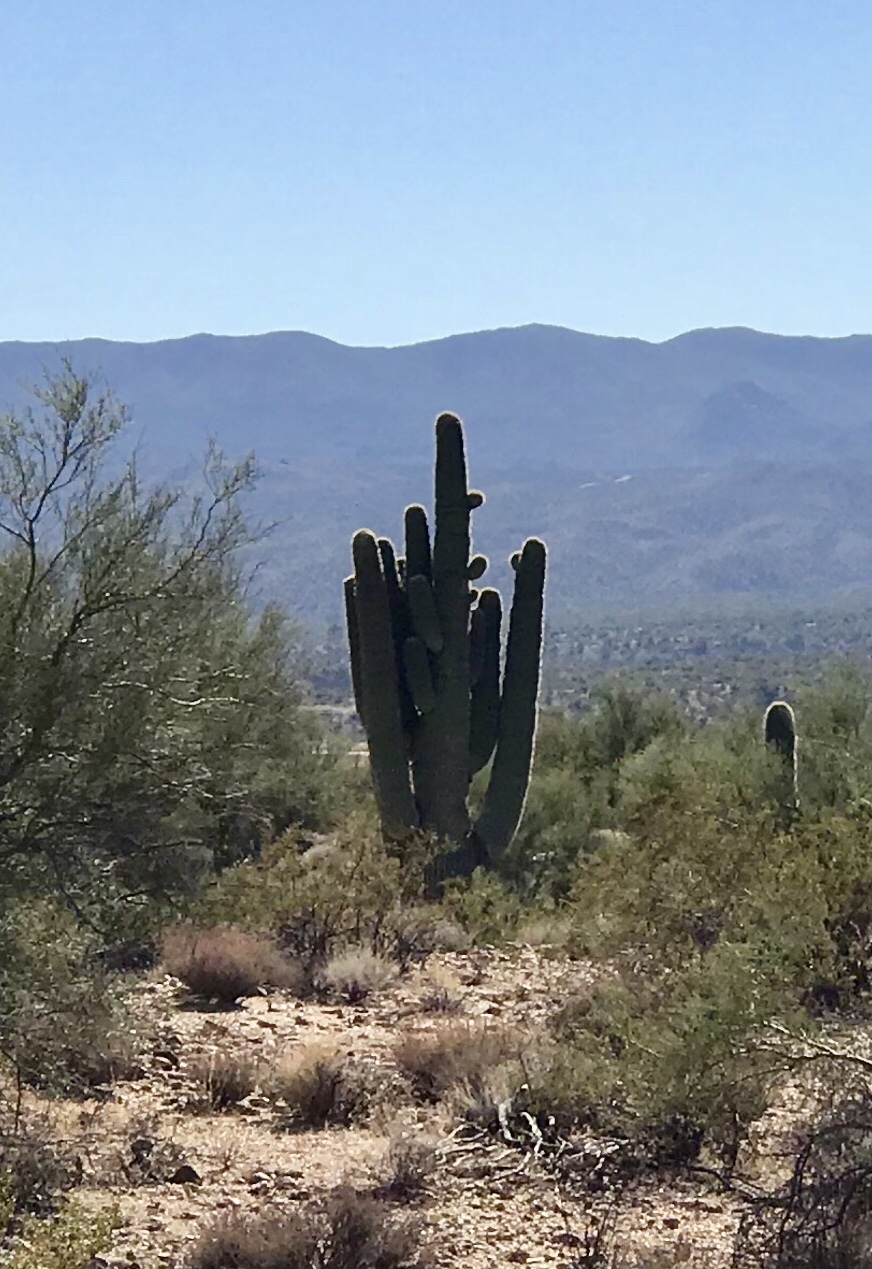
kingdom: Plantae
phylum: Tracheophyta
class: Magnoliopsida
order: Caryophyllales
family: Cactaceae
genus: Carnegiea
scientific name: Carnegiea gigantea
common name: Saguaro
